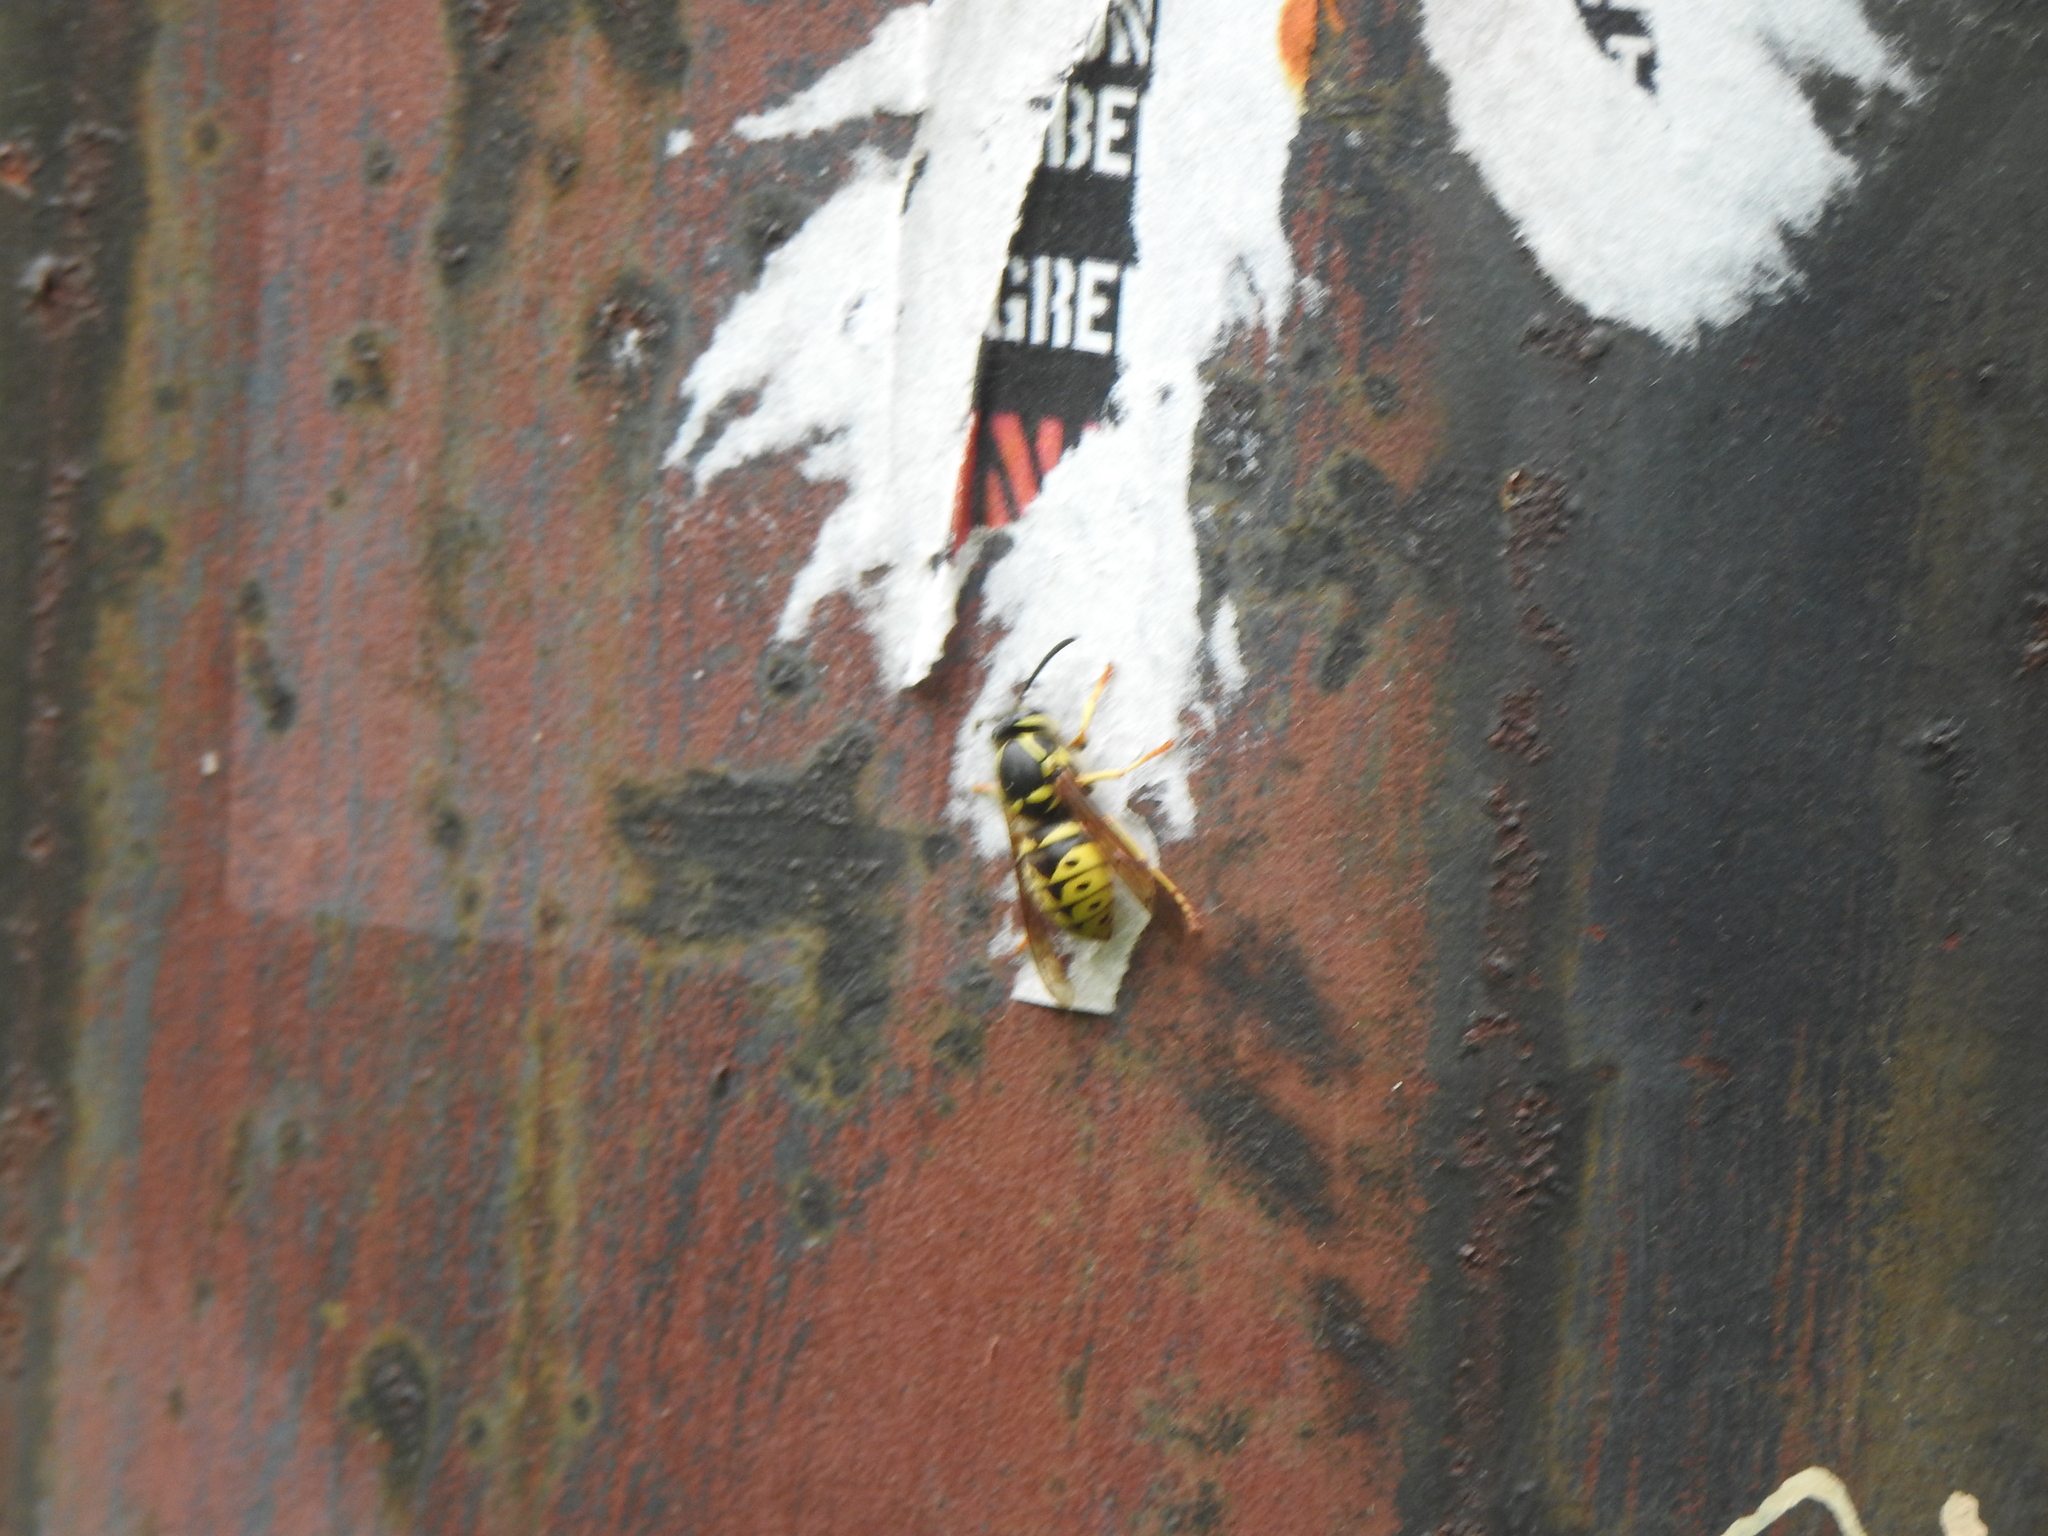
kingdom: Animalia
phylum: Arthropoda
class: Insecta
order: Hymenoptera
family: Vespidae
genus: Dolichovespula
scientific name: Dolichovespula arenaria
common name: Aerial yellowjacket
